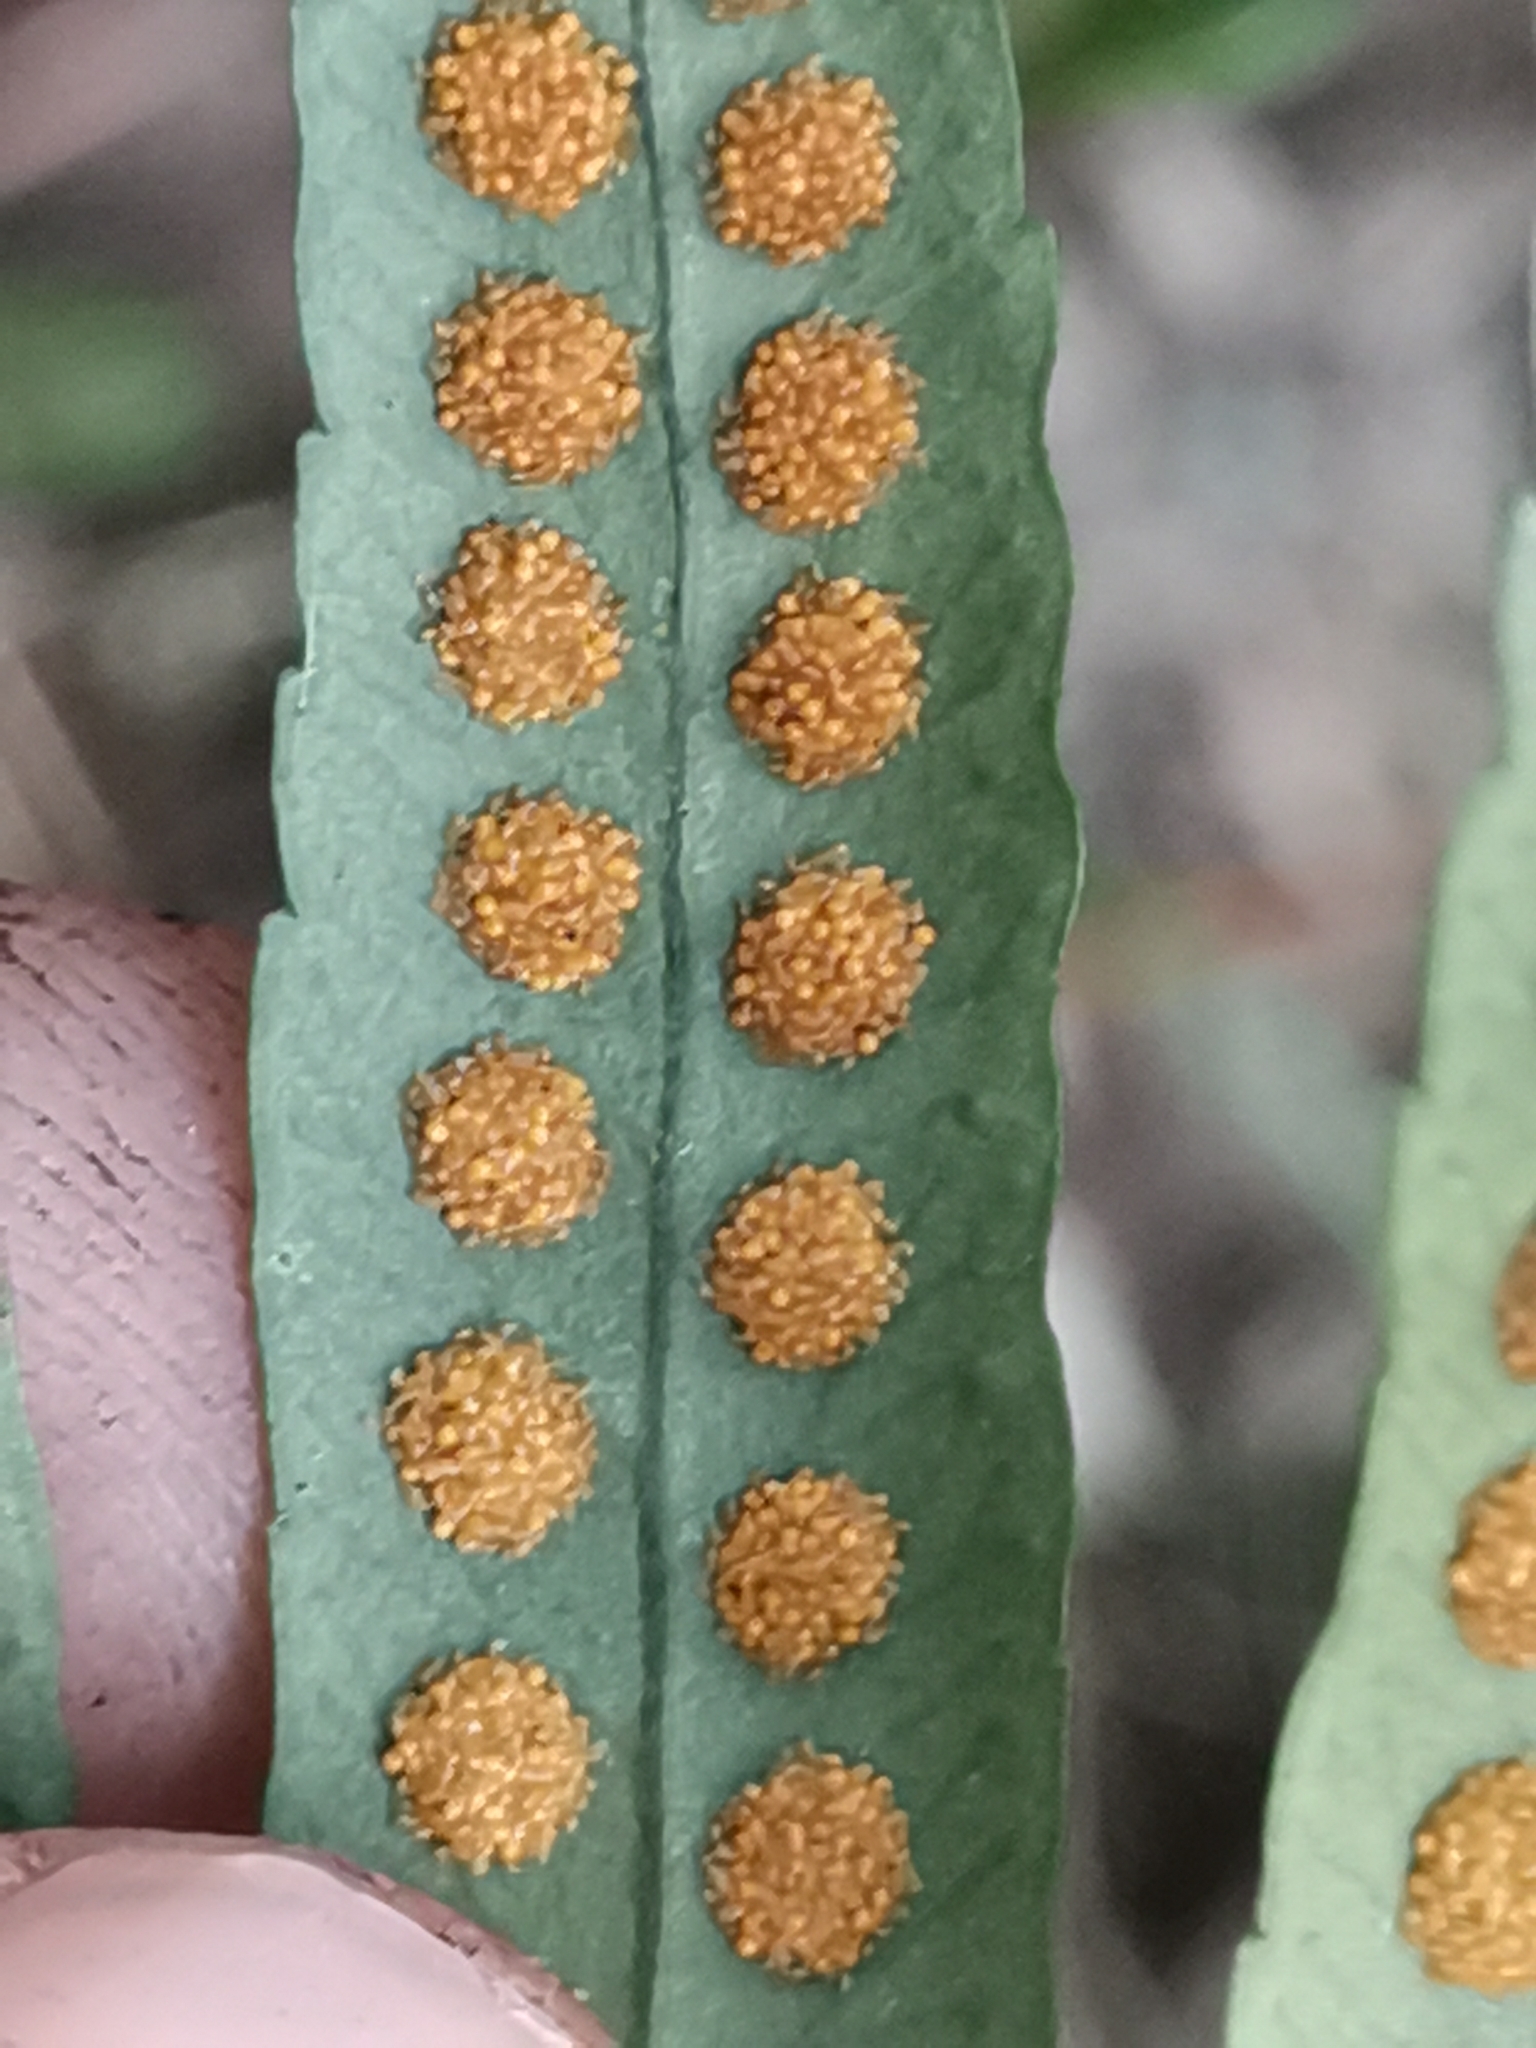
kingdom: Plantae
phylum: Tracheophyta
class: Polypodiopsida
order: Polypodiales
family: Polypodiaceae
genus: Polypodium
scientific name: Polypodium cambricum
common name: Southern polypody
